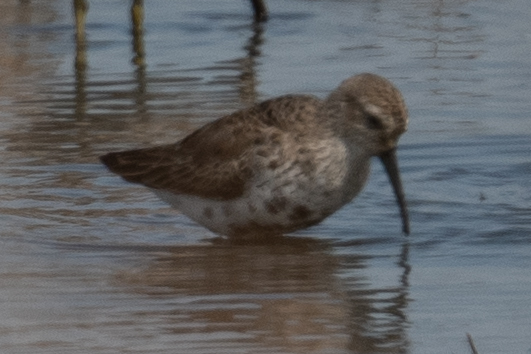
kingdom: Animalia
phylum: Chordata
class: Aves
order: Charadriiformes
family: Scolopacidae
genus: Calidris
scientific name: Calidris alpina
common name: Dunlin
